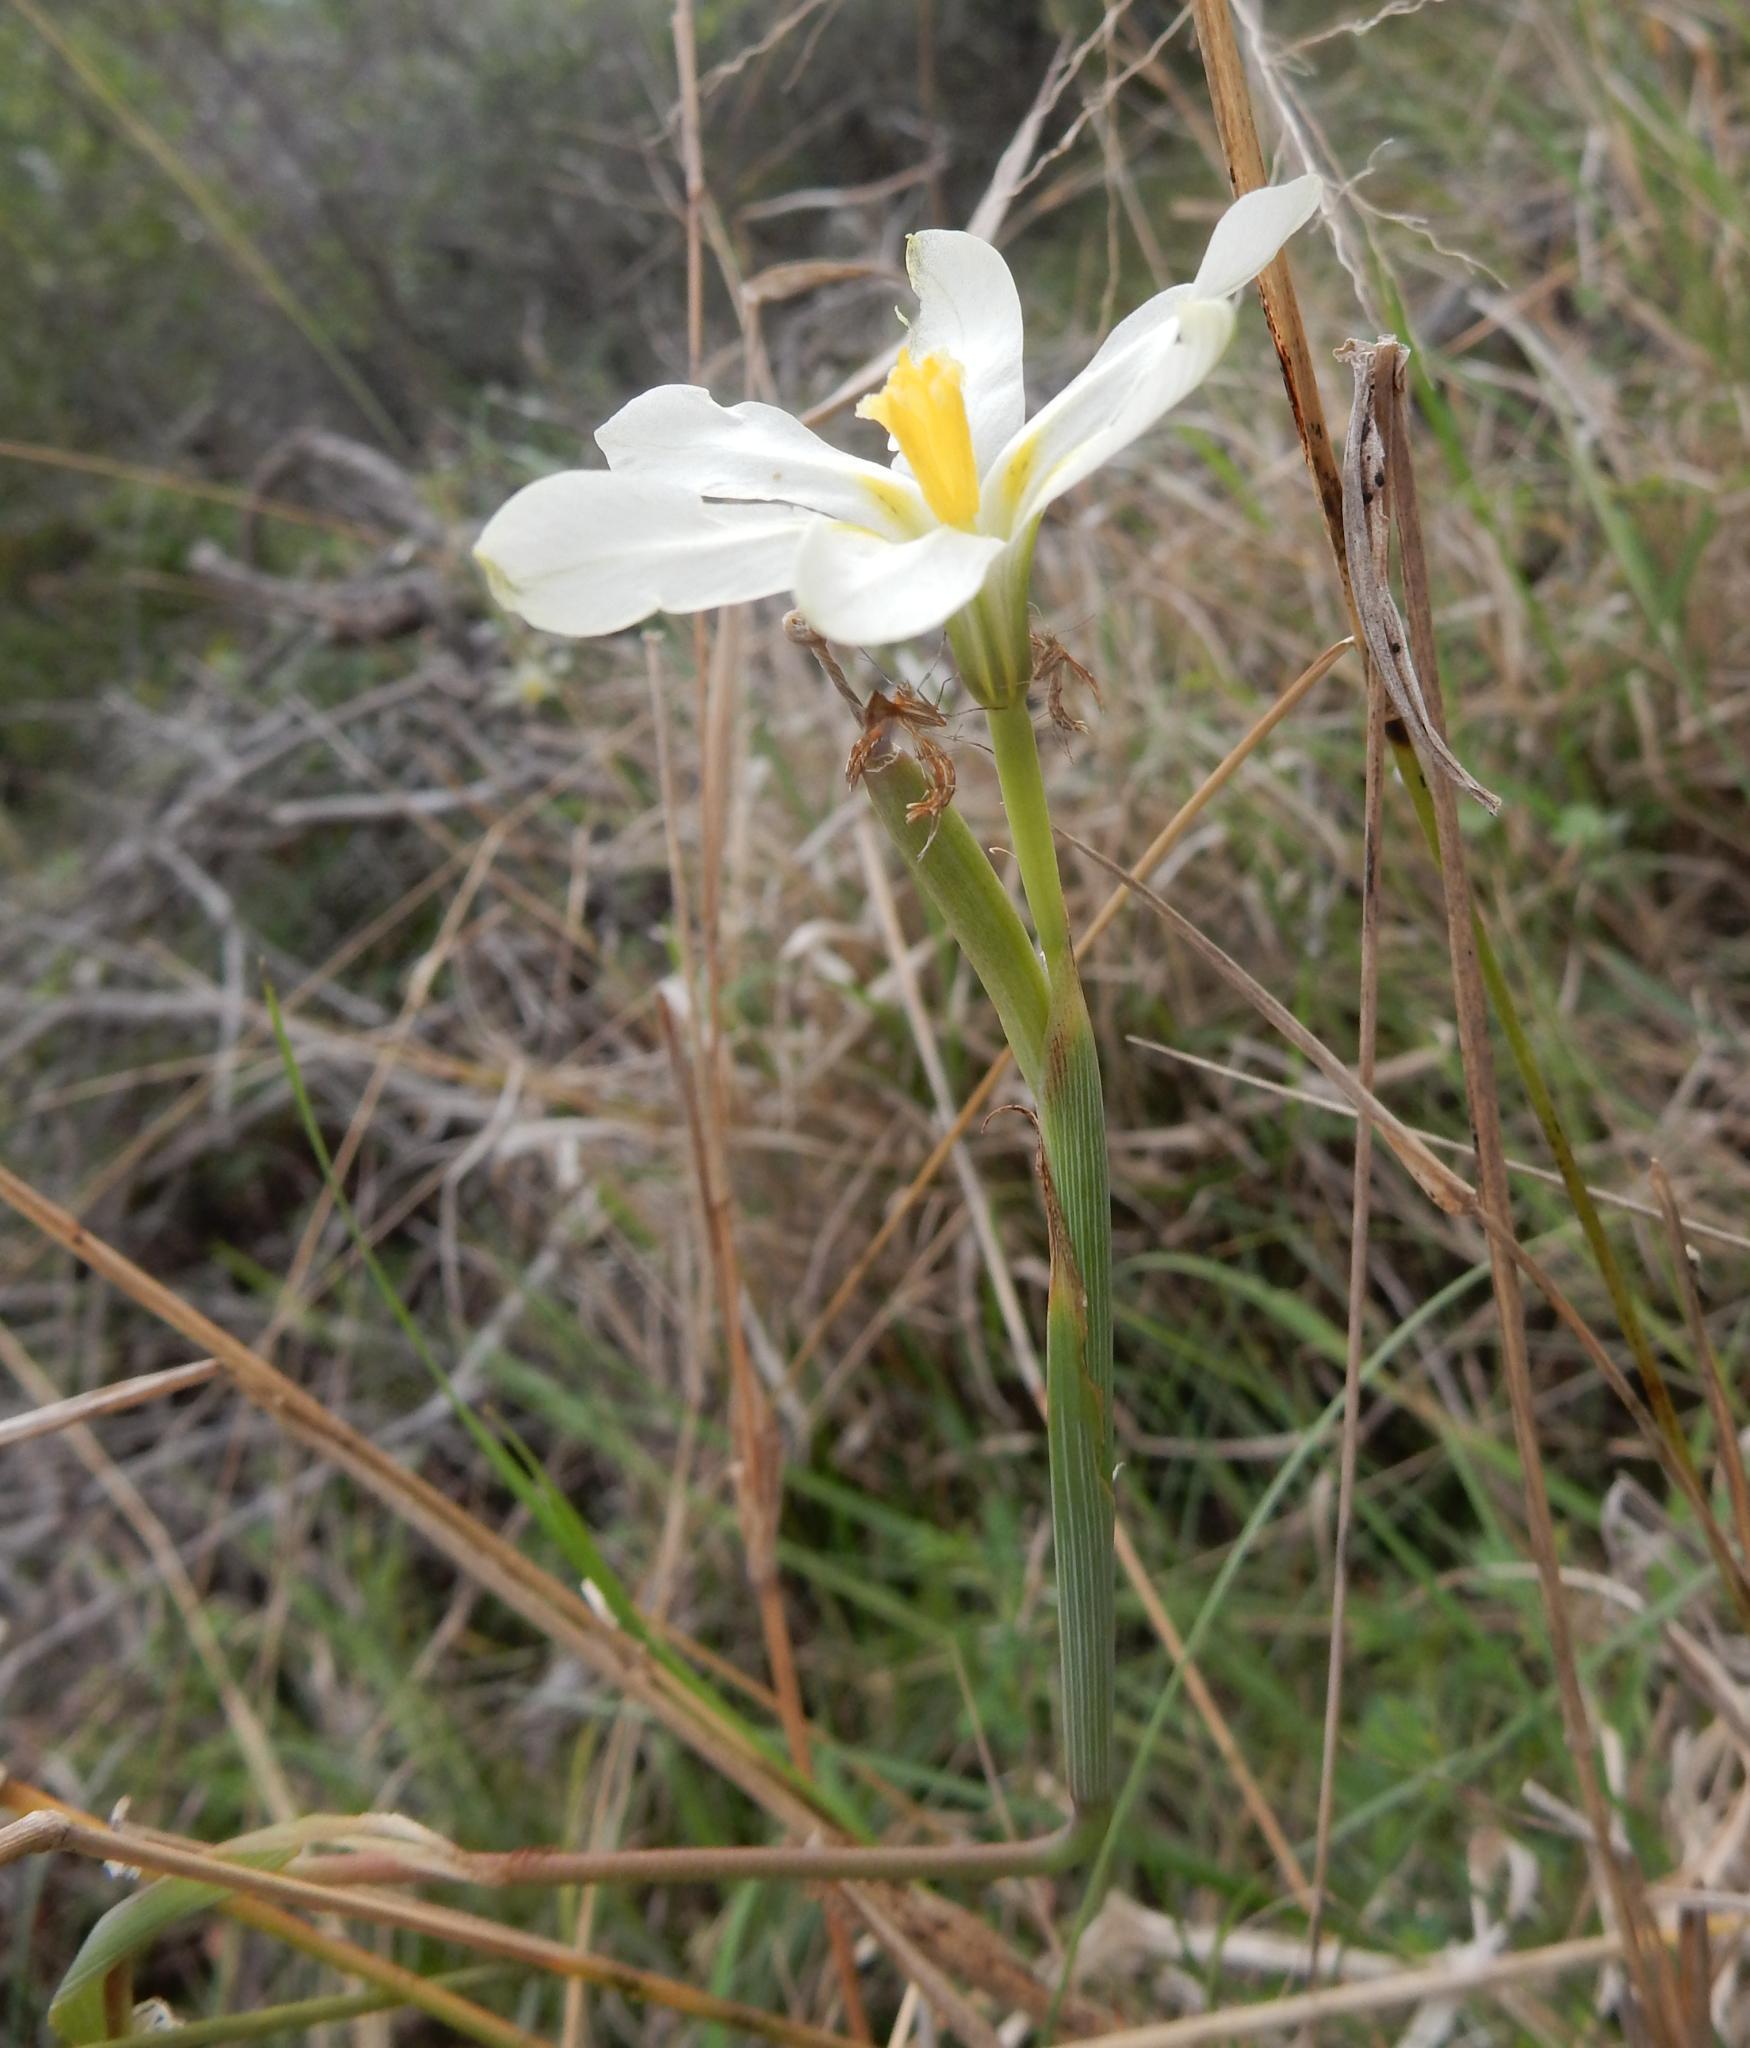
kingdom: Plantae
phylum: Tracheophyta
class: Liliopsida
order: Asparagales
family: Iridaceae
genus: Moraea
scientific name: Moraea britteniae
